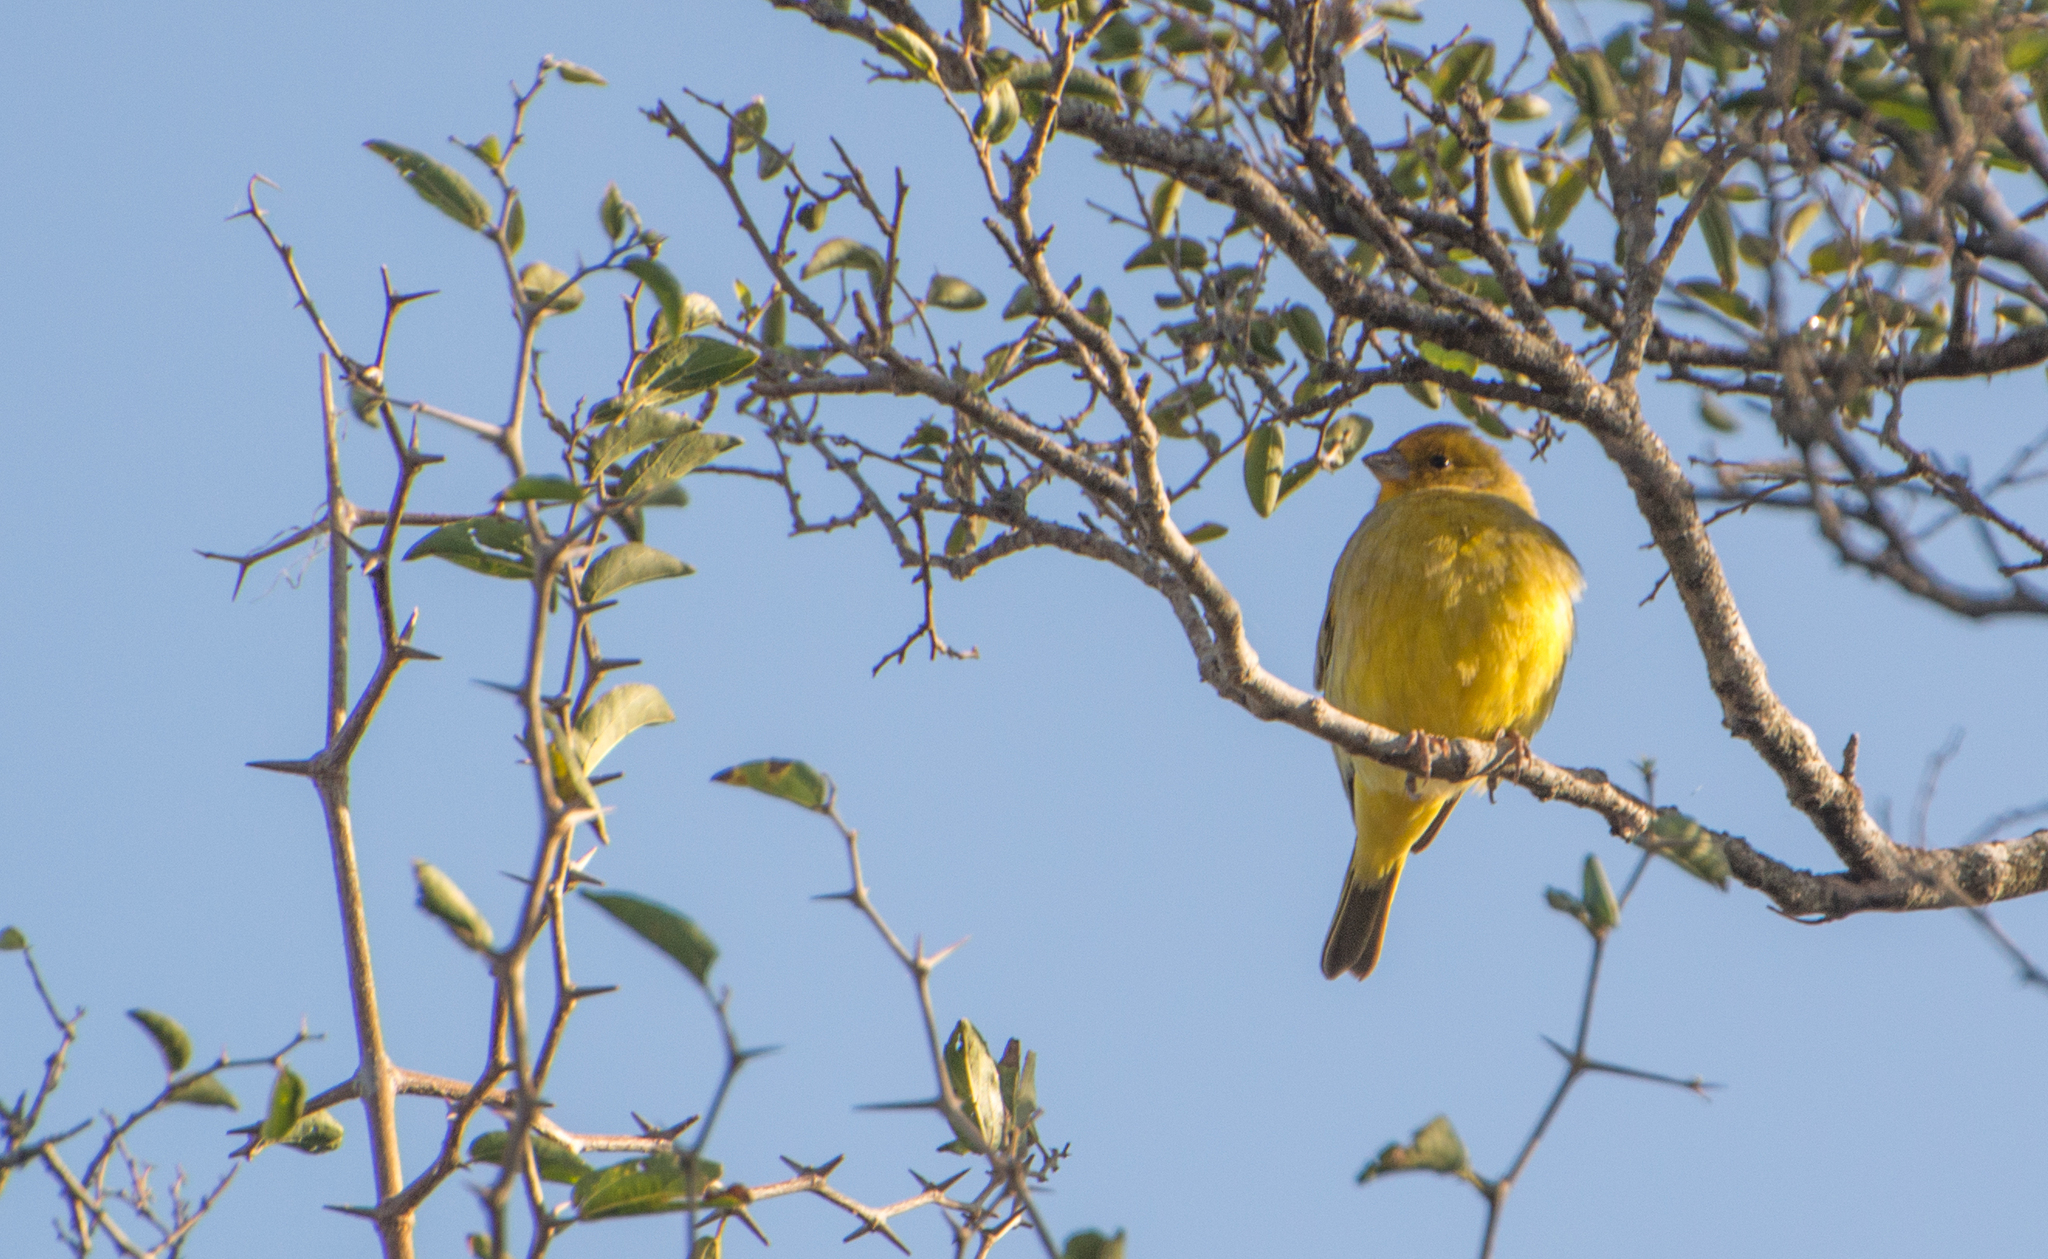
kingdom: Animalia
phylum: Chordata
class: Aves
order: Passeriformes
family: Thraupidae
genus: Sicalis
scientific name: Sicalis flaveola
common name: Saffron finch
